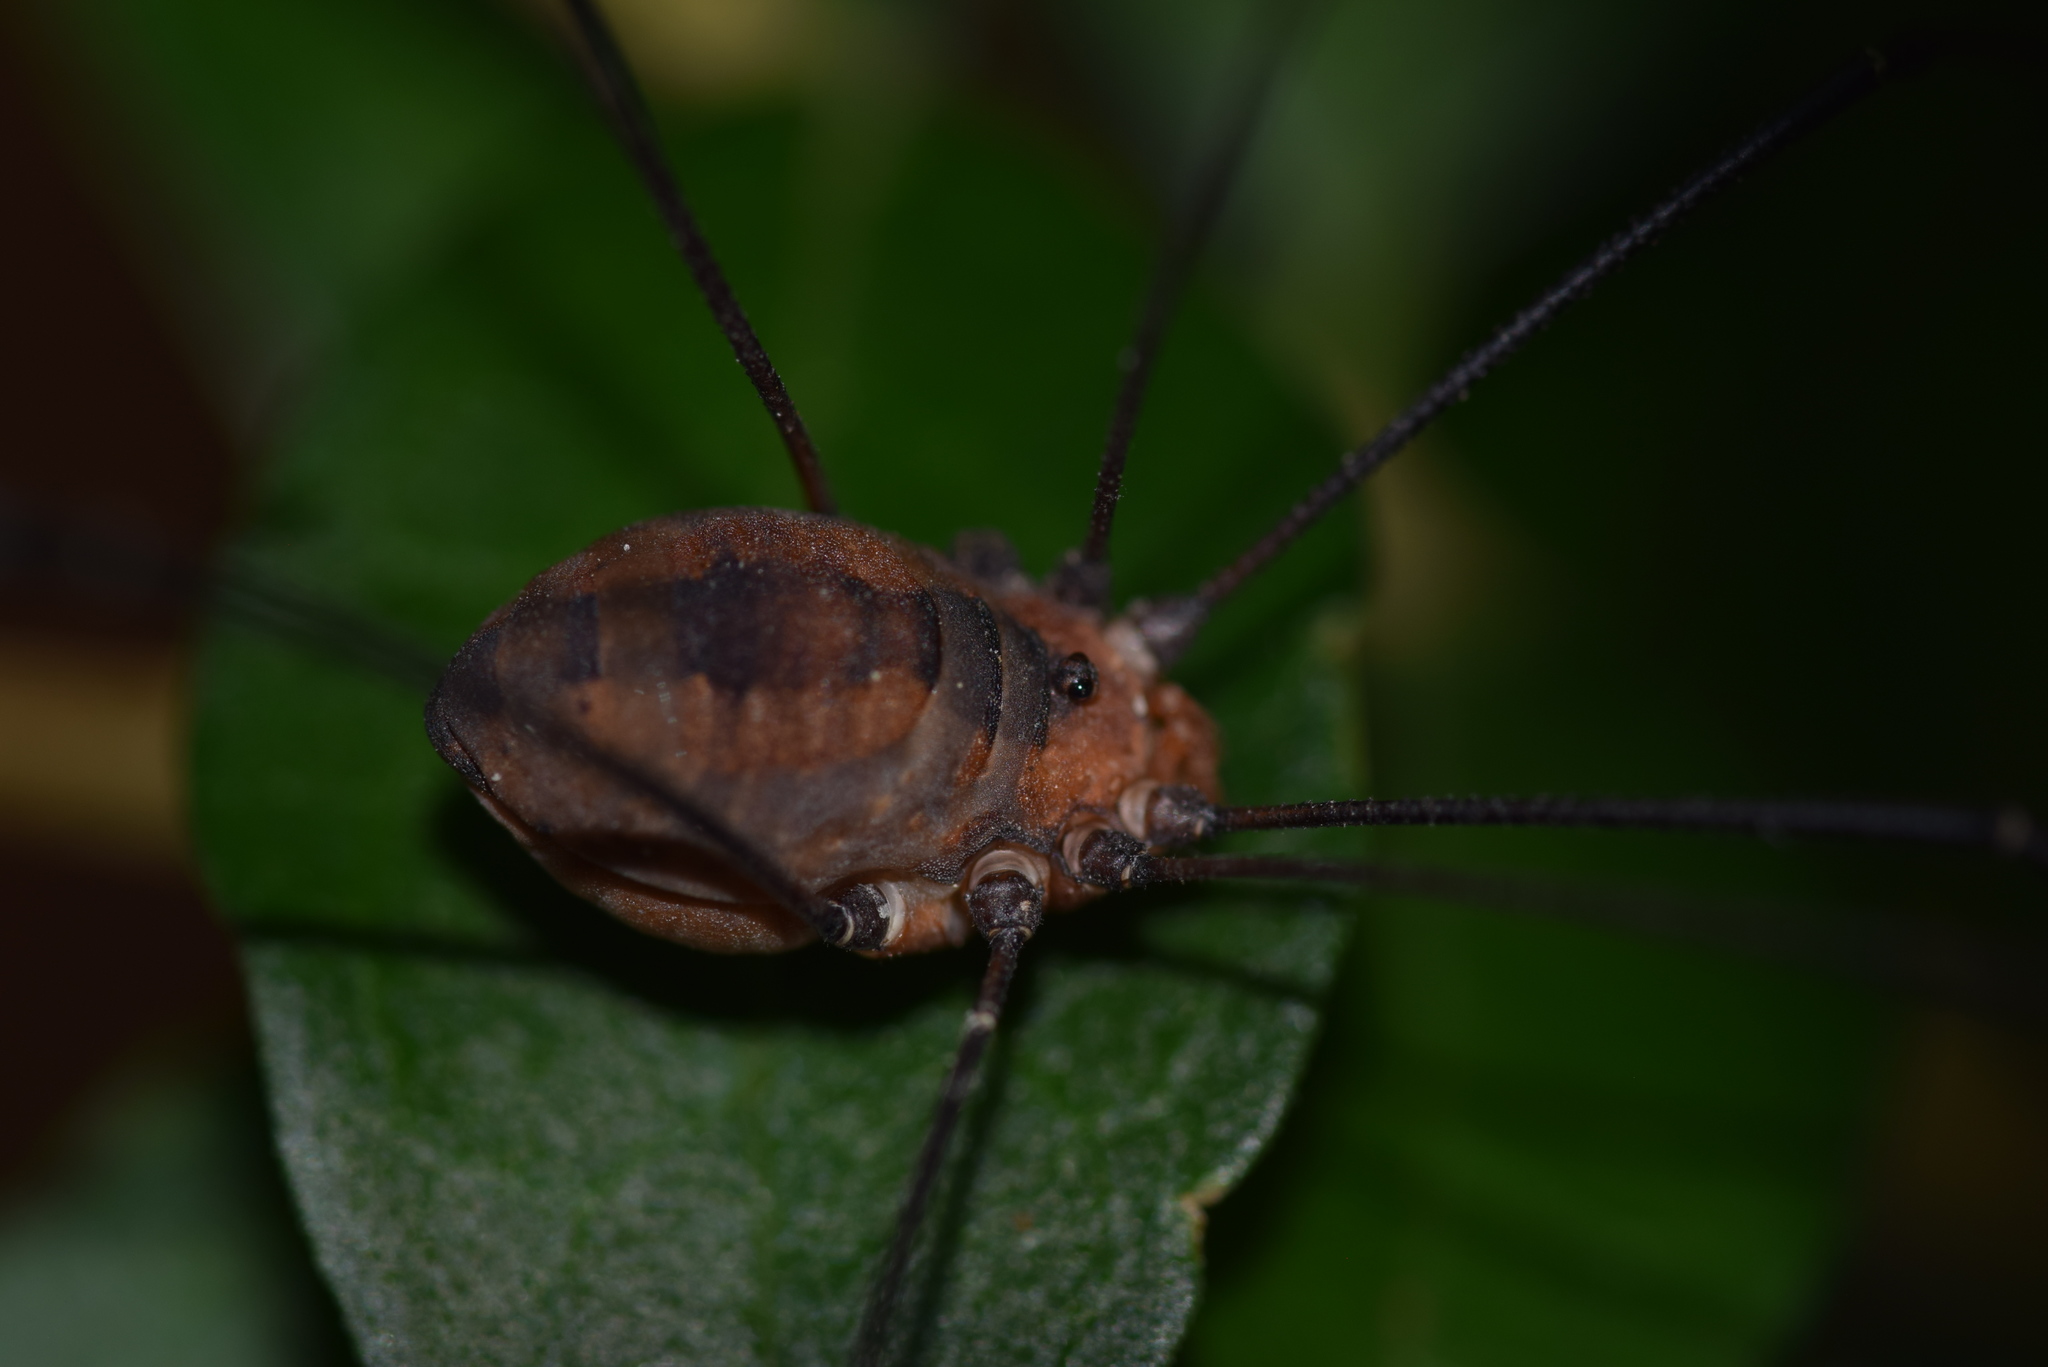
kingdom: Animalia
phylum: Arthropoda
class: Arachnida
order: Opiliones
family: Sclerosomatidae
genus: Leiobunum
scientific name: Leiobunum vittatum
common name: Eastern harvestman
